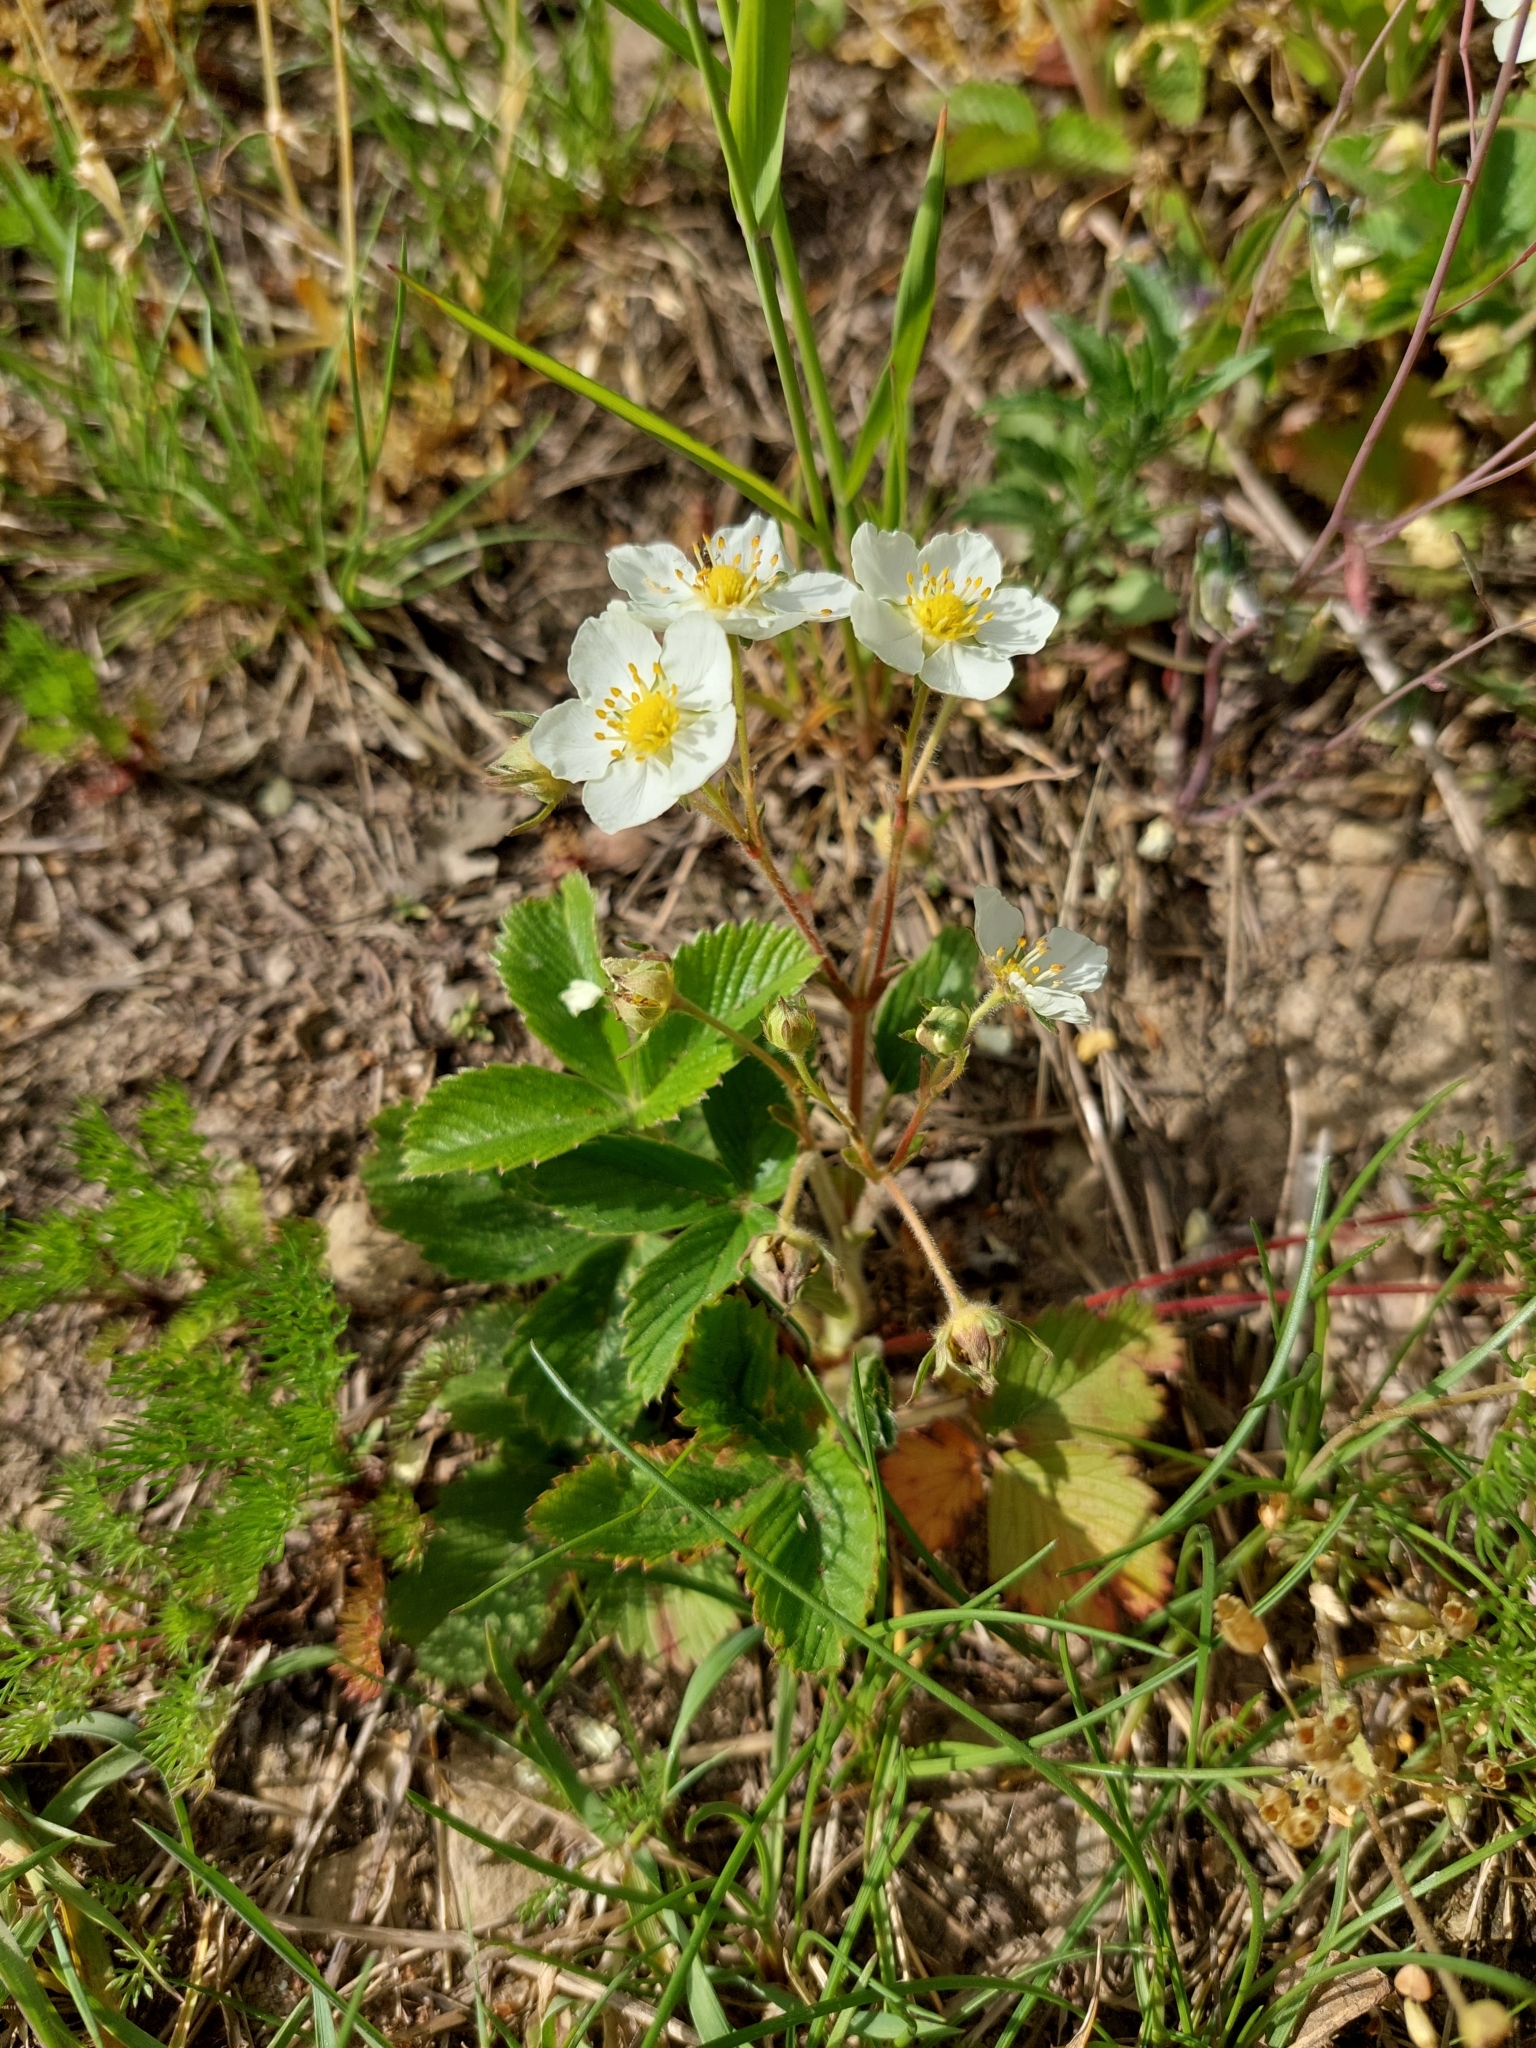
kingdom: Plantae
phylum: Tracheophyta
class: Magnoliopsida
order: Rosales
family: Rosaceae
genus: Fragaria
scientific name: Fragaria viridis
